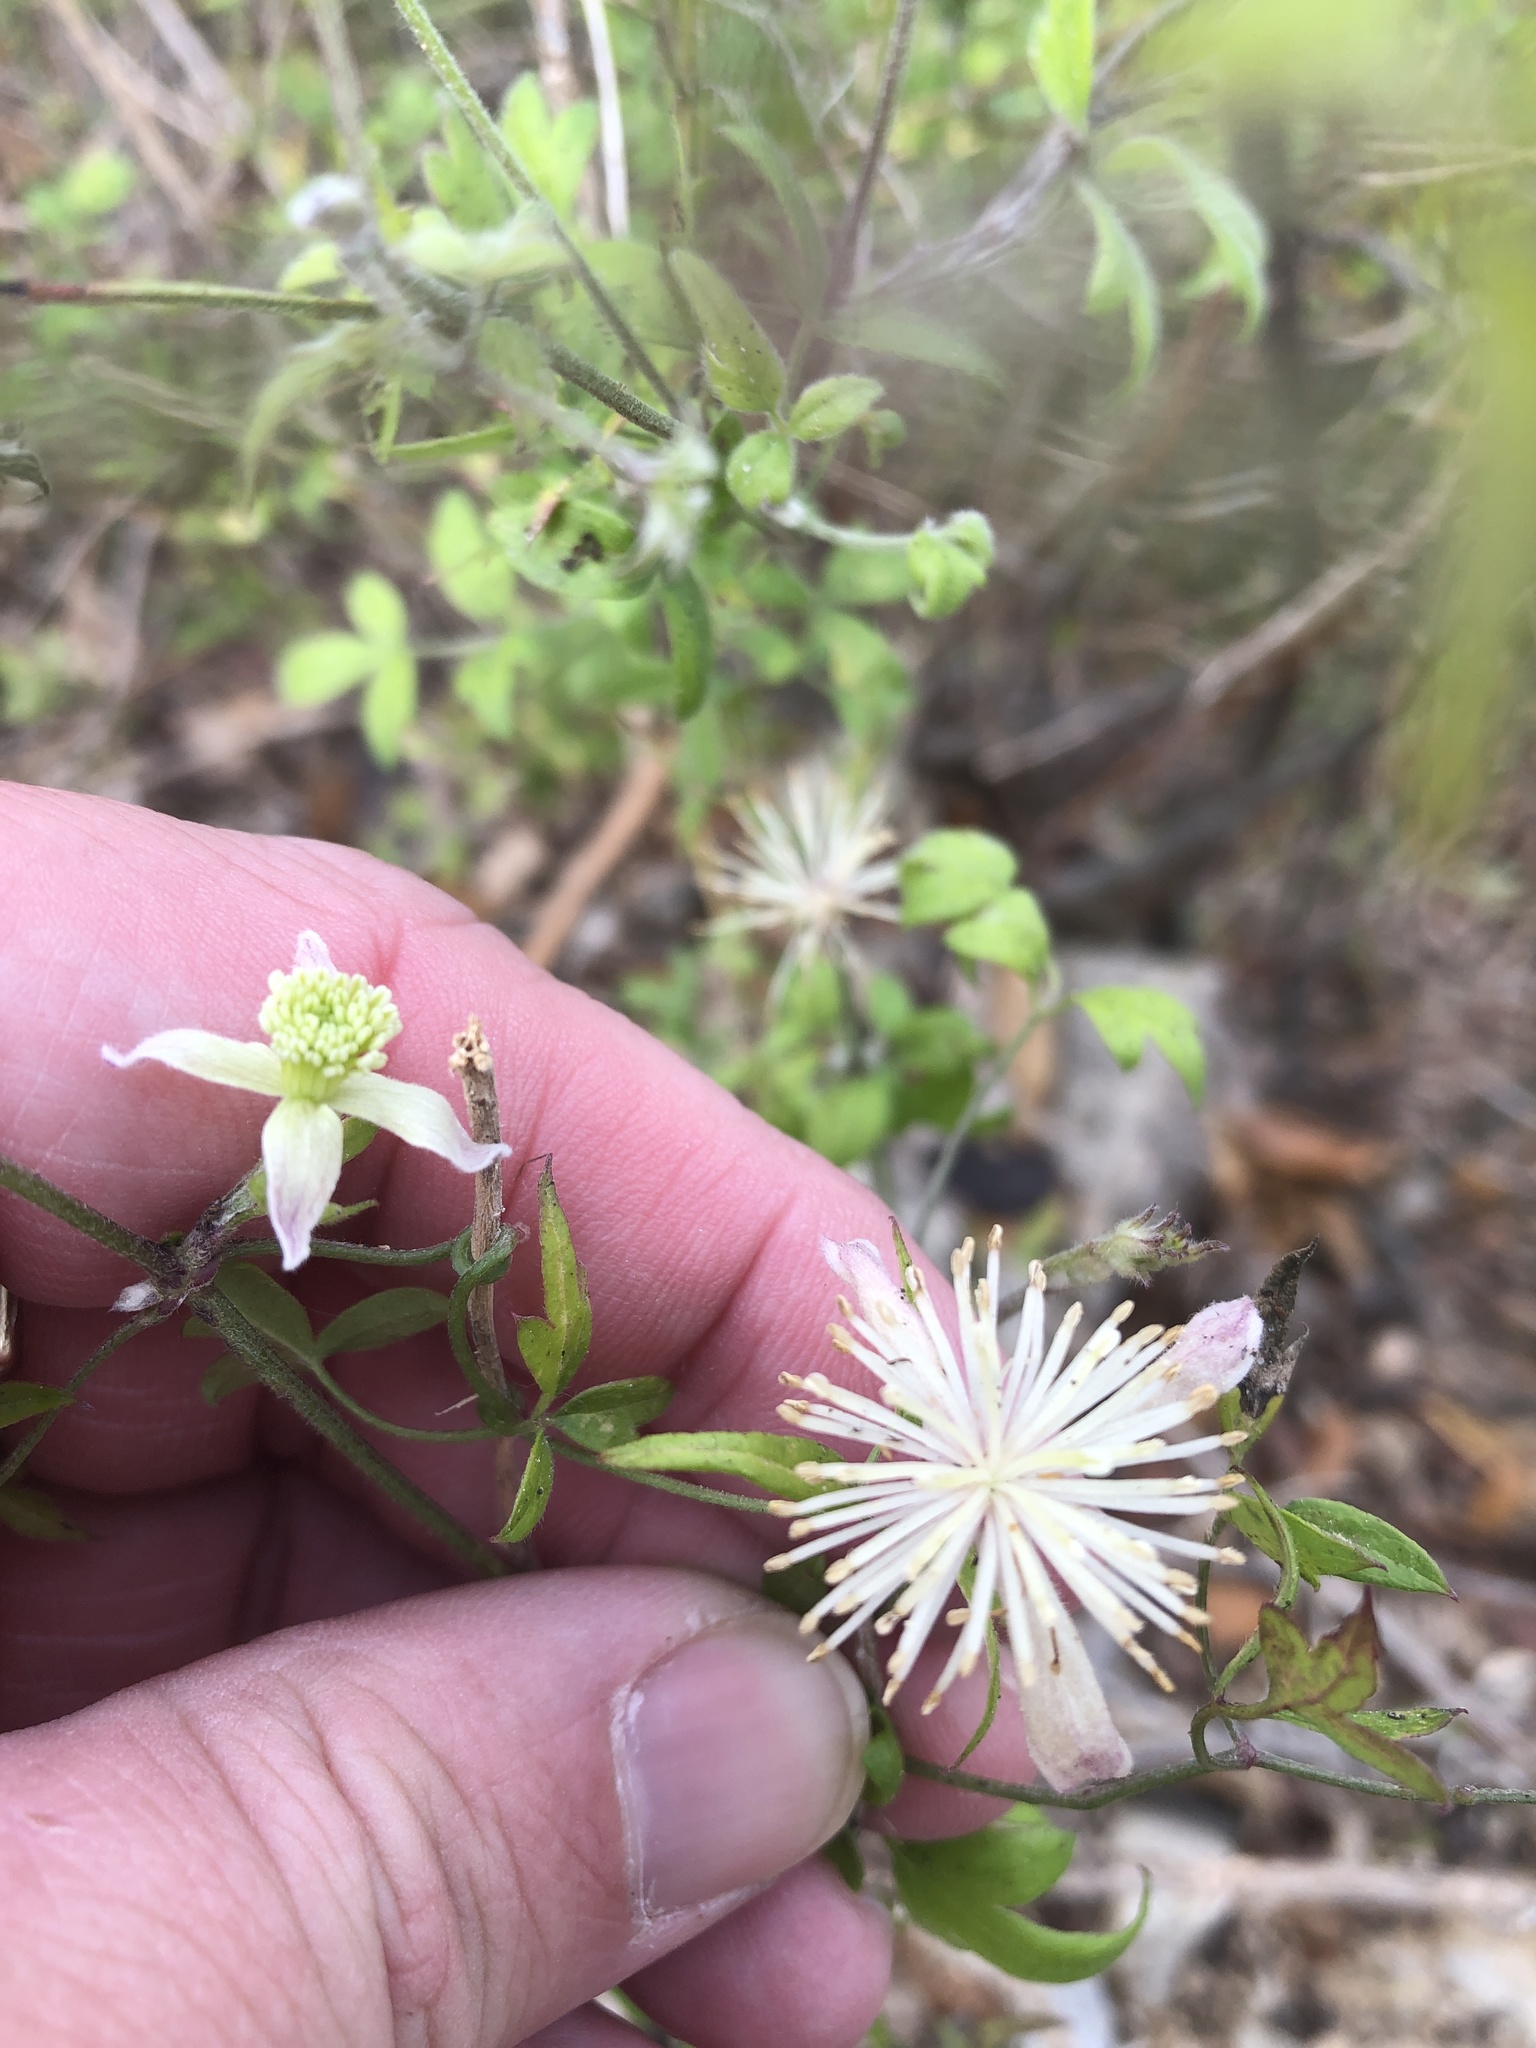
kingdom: Plantae
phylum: Tracheophyta
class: Magnoliopsida
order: Ranunculales
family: Ranunculaceae
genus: Clematis
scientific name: Clematis drummondii
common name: Texas virgin's bower
